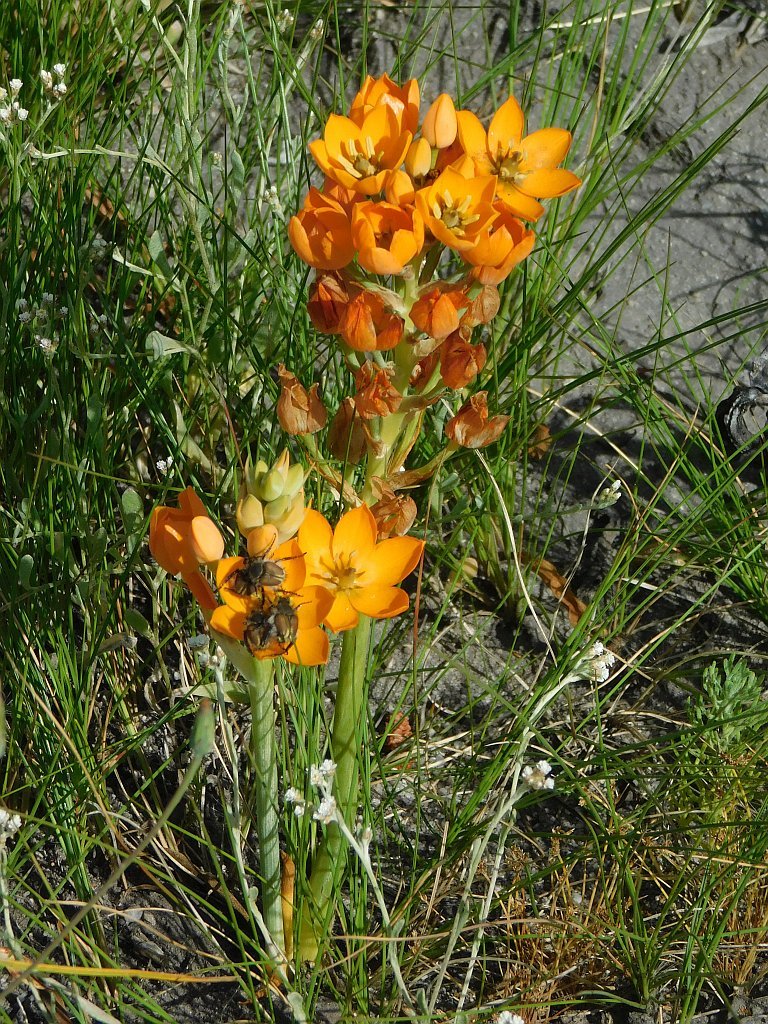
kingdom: Plantae
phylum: Tracheophyta
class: Liliopsida
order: Asparagales
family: Asparagaceae
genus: Ornithogalum
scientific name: Ornithogalum dubium
